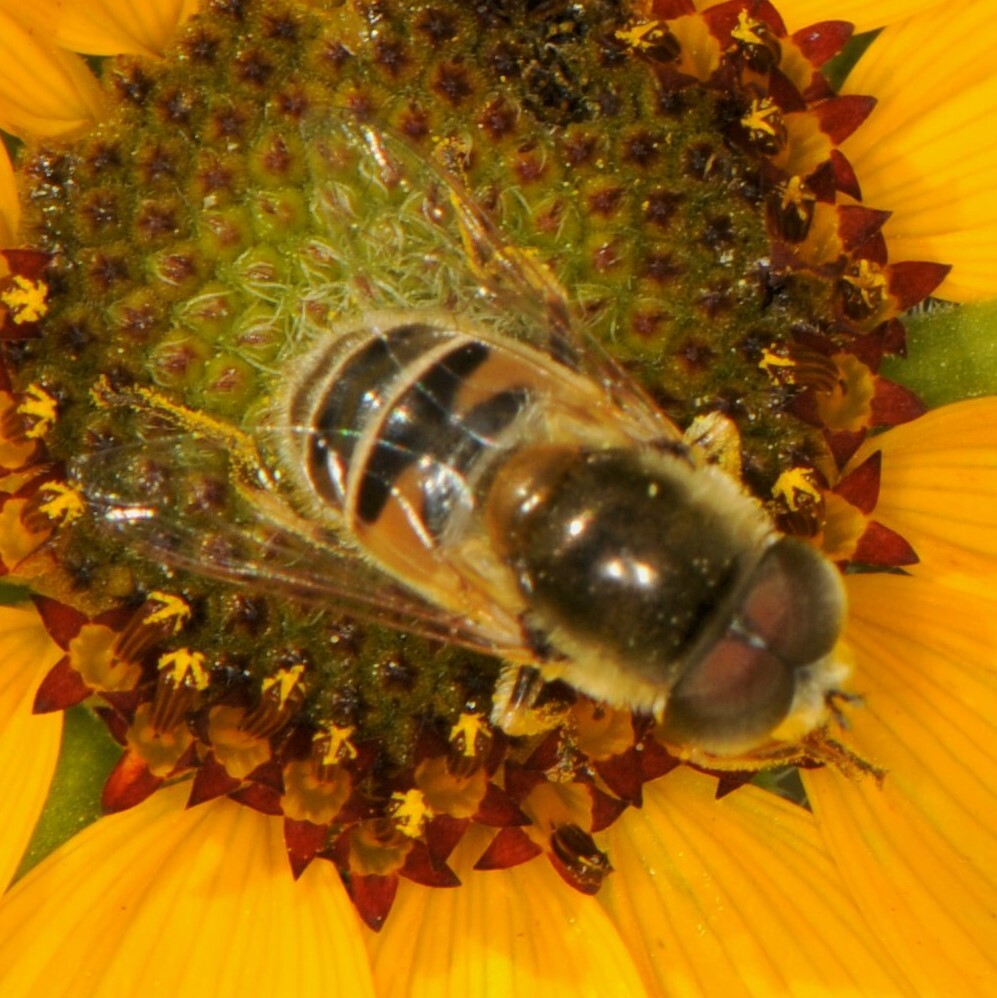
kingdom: Animalia
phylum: Arthropoda
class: Insecta
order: Diptera
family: Syrphidae
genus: Eristalis
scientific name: Eristalis stipator
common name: Yellow-shouldered drone fly
